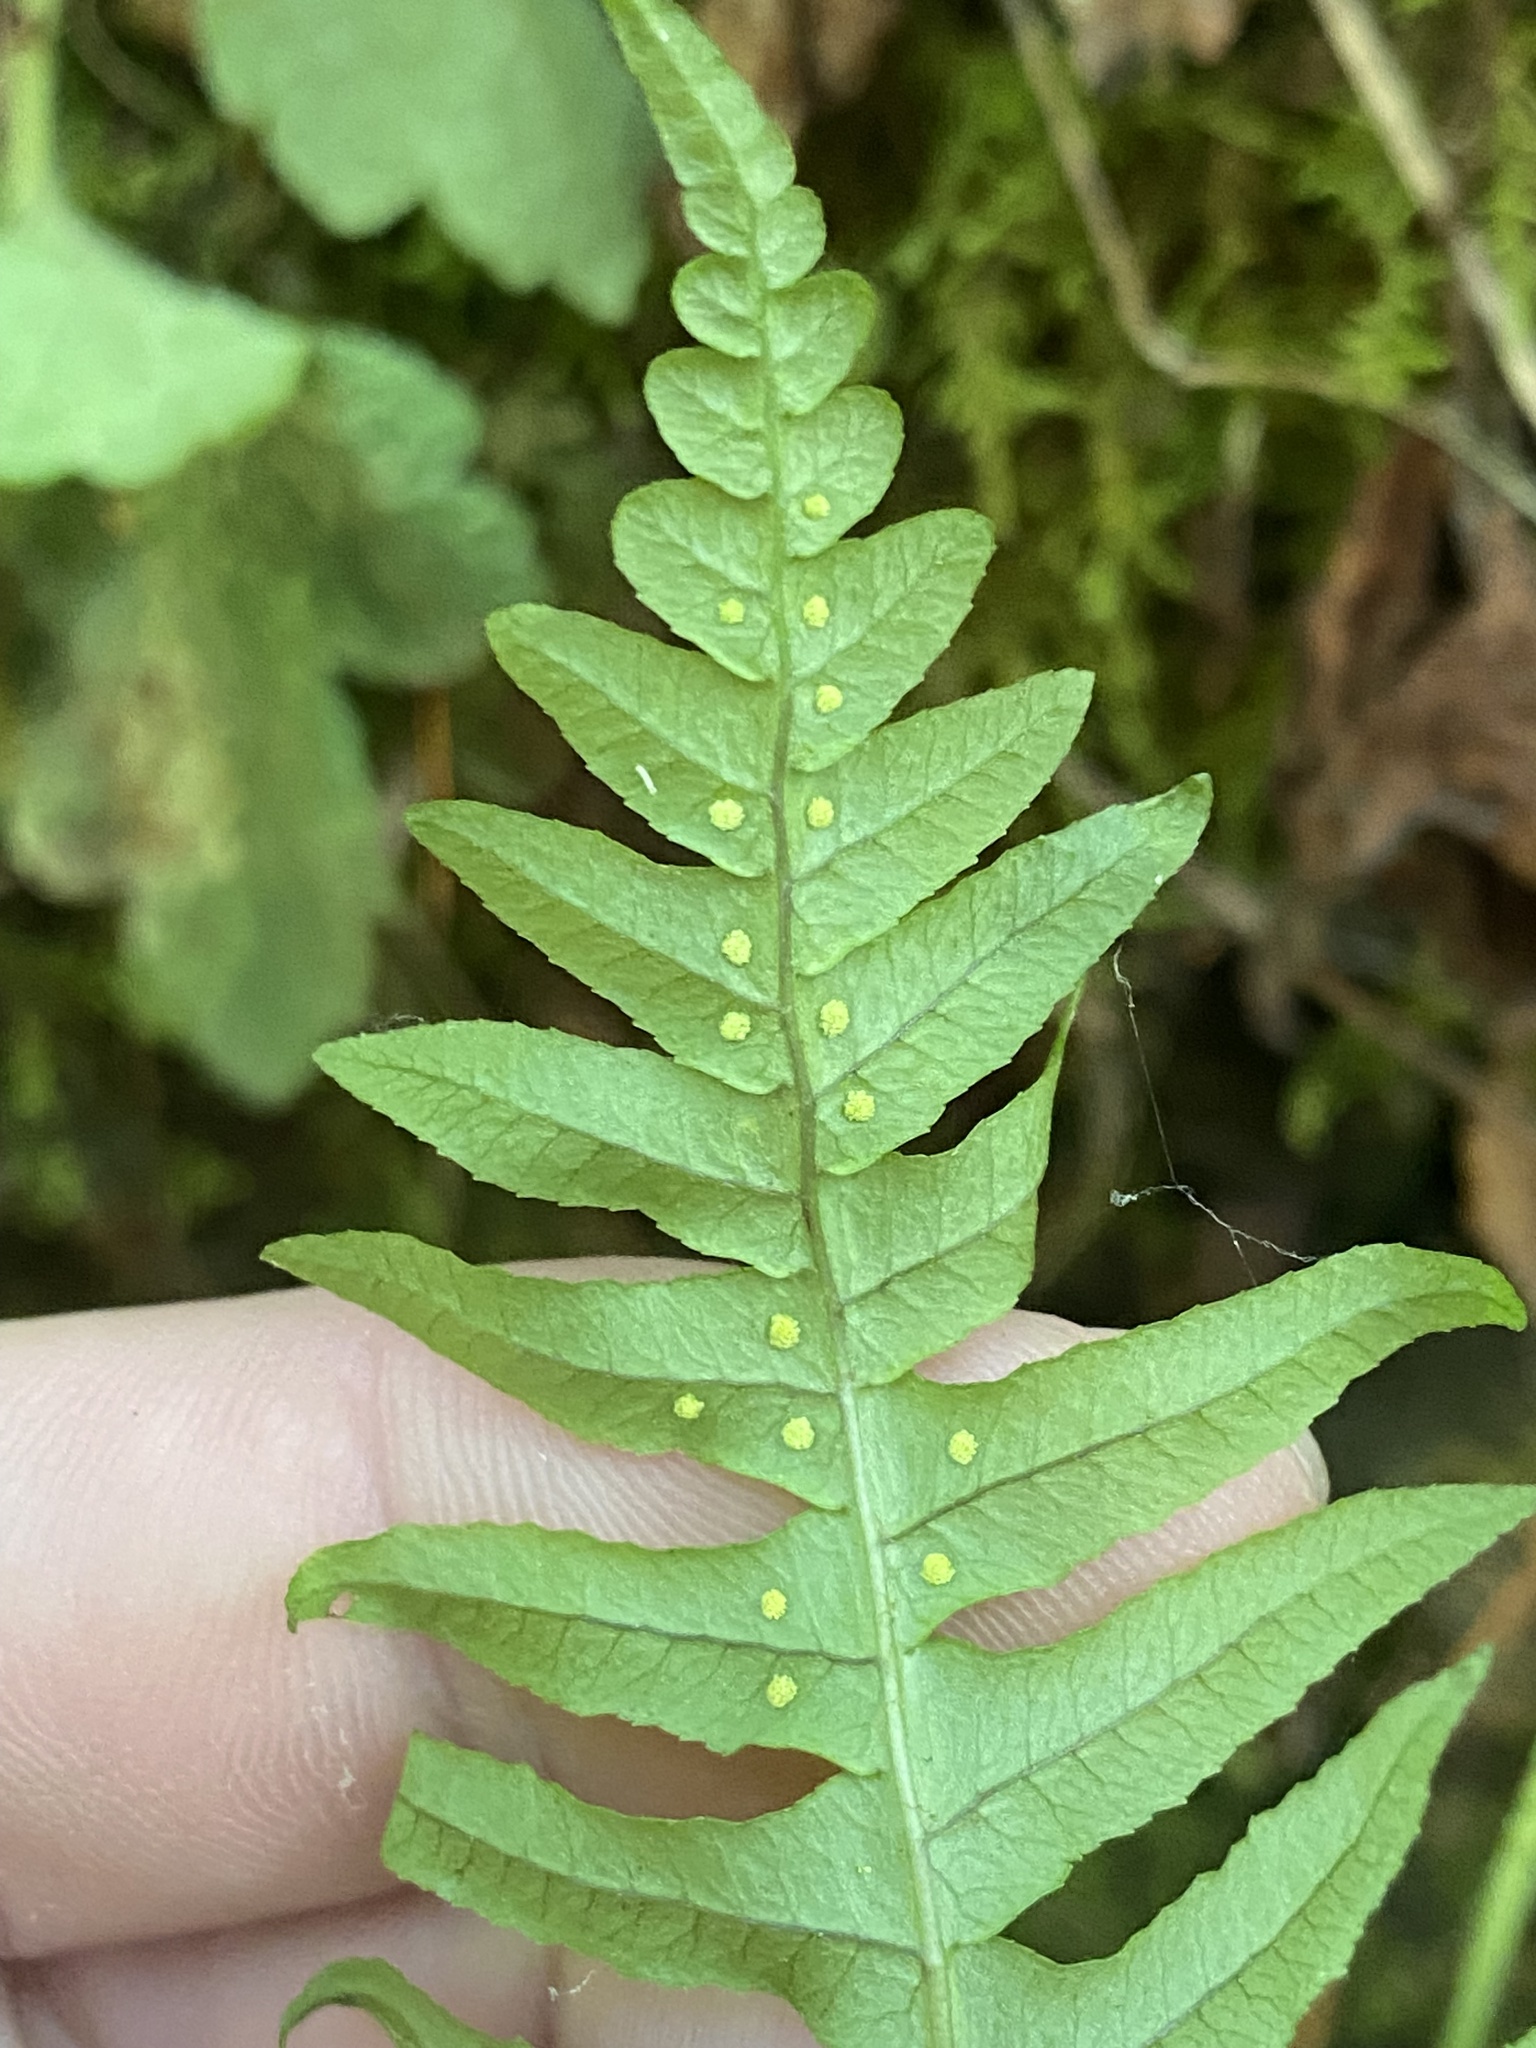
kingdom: Plantae
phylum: Tracheophyta
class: Polypodiopsida
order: Polypodiales
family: Polypodiaceae
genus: Polypodium
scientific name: Polypodium glycyrrhiza
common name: Licorice fern
